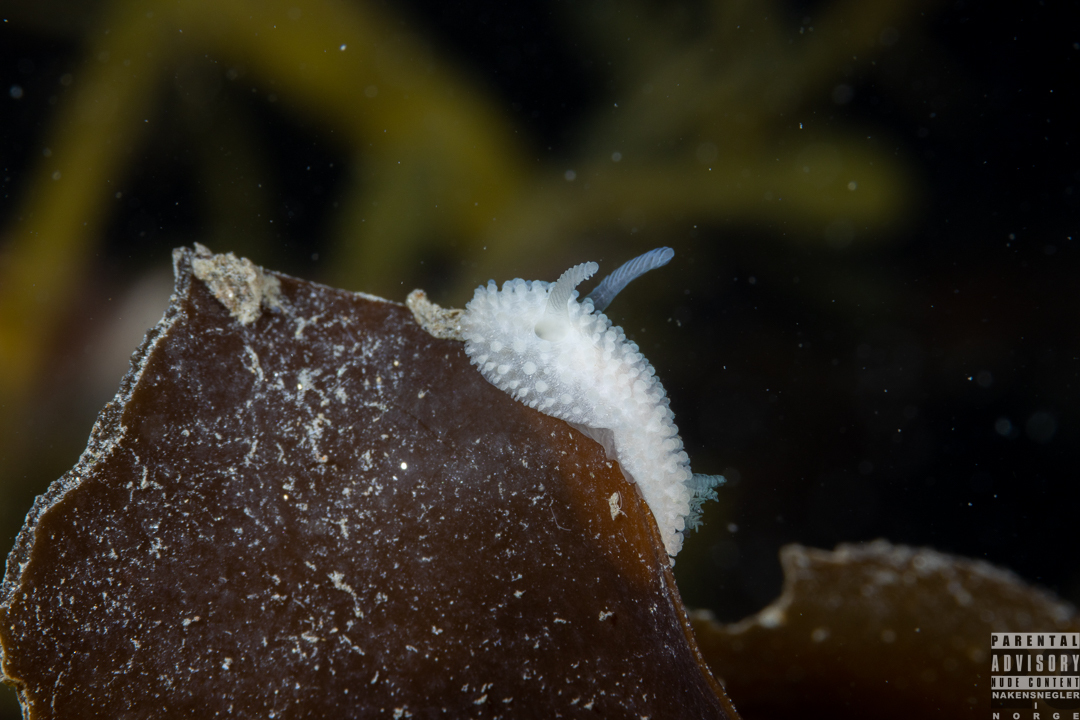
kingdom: Animalia
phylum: Mollusca
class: Gastropoda
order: Nudibranchia
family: Onchidorididae
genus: Onchidoris
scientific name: Onchidoris muricata
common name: Rough doris
